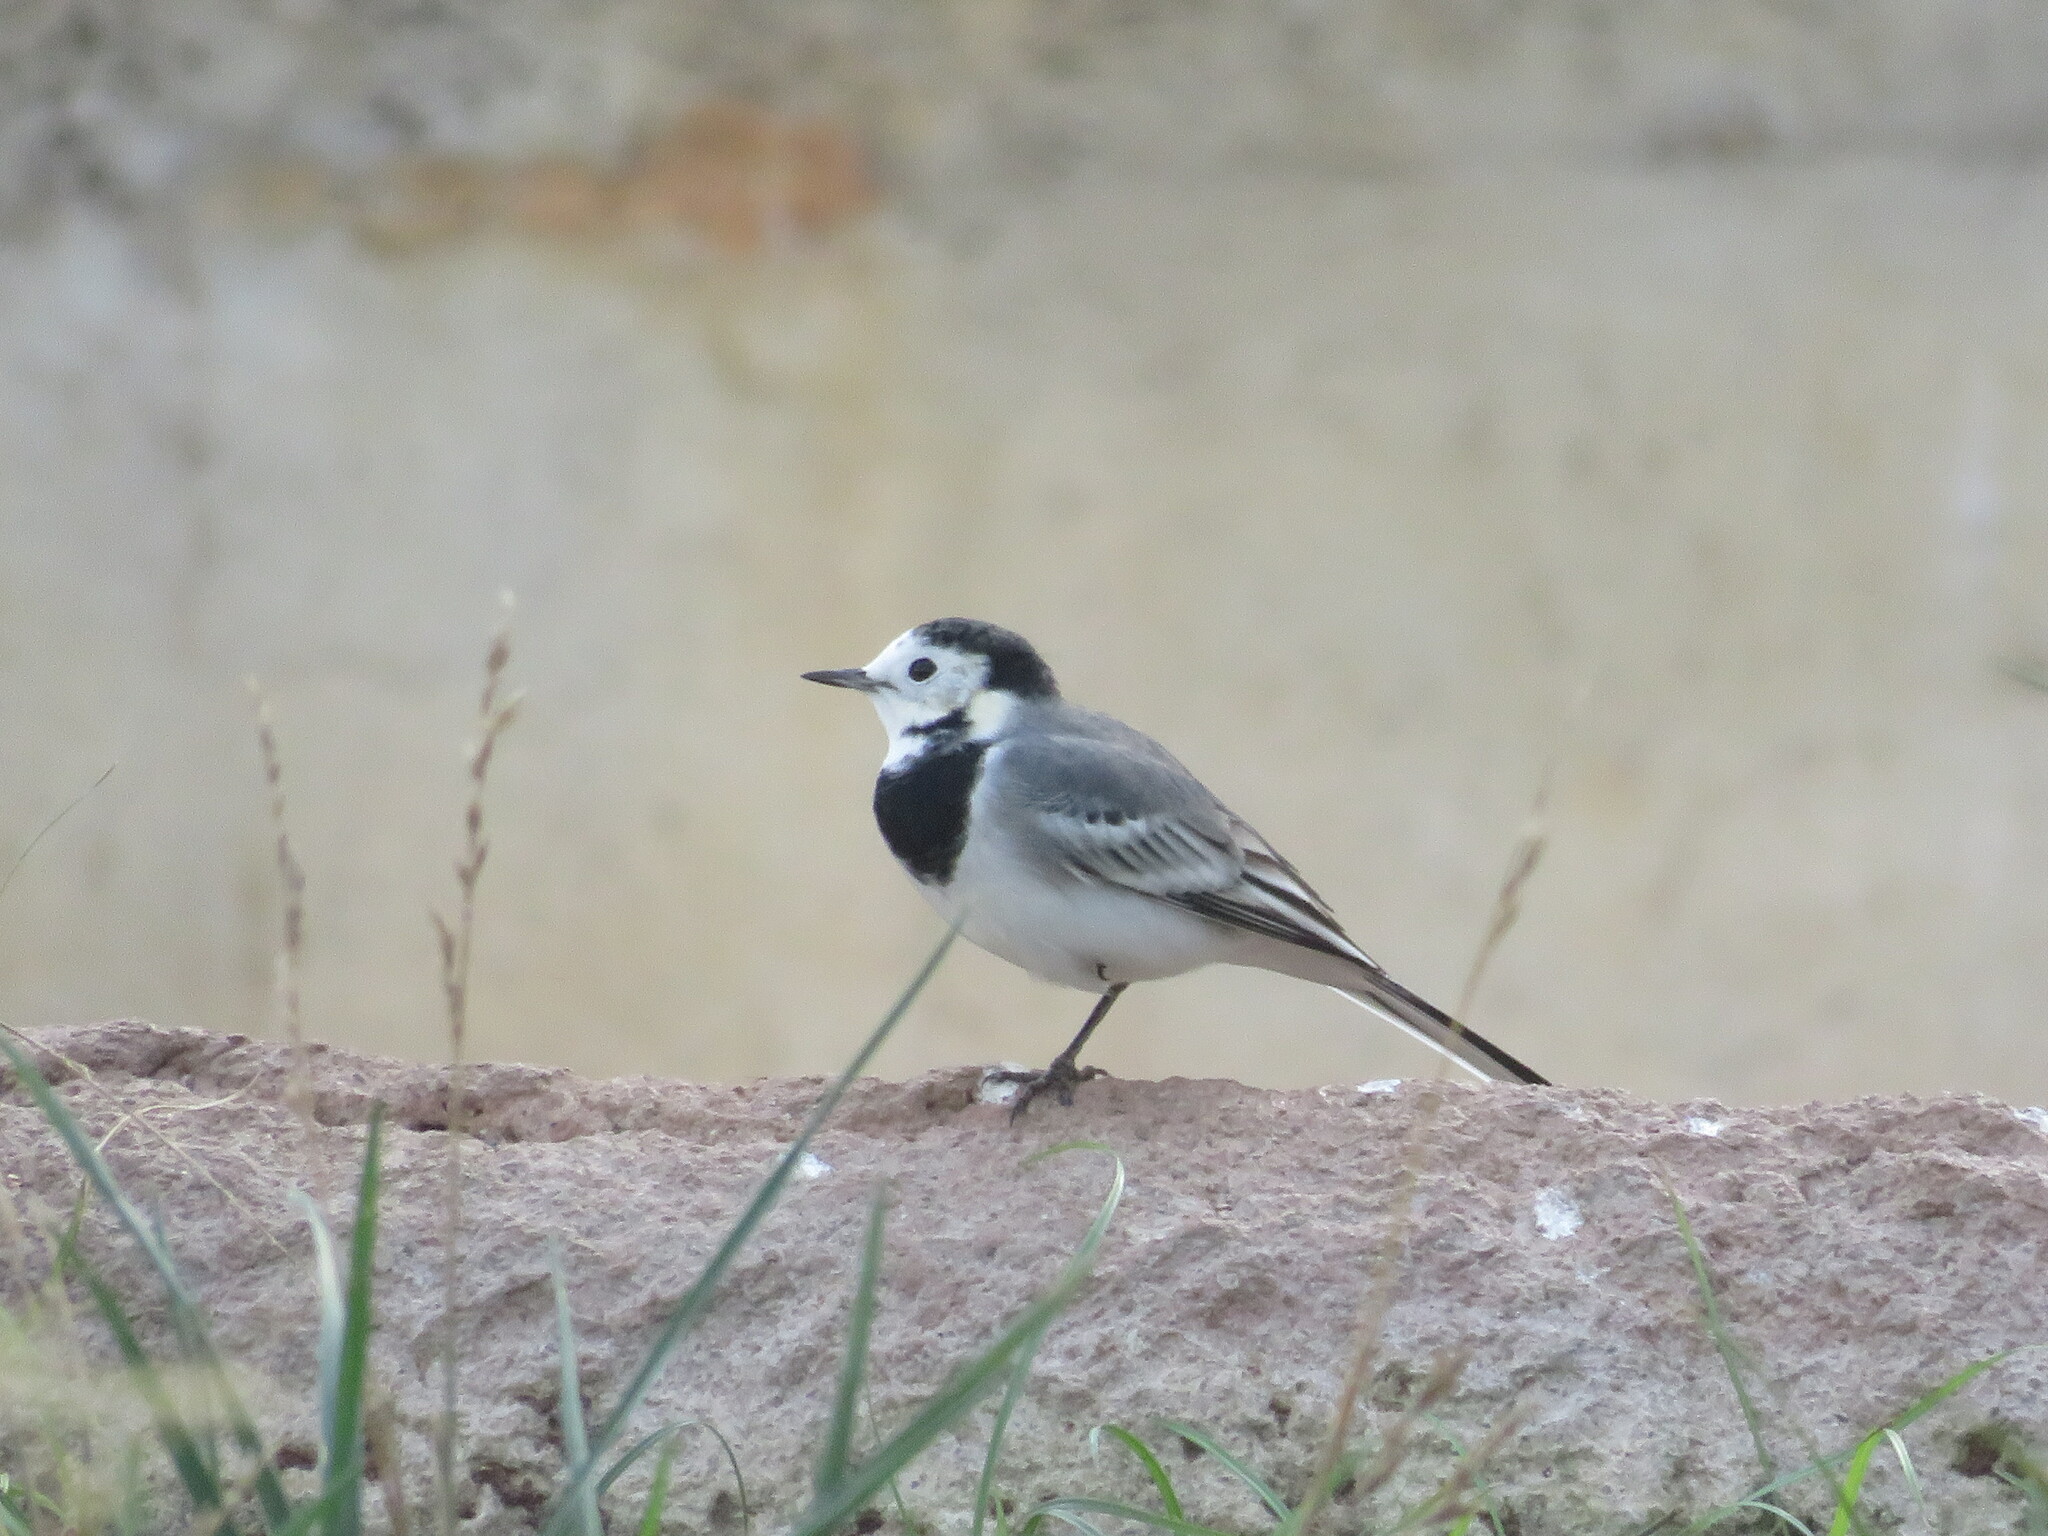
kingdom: Animalia
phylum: Chordata
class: Aves
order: Passeriformes
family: Motacillidae
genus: Motacilla
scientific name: Motacilla alba
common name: White wagtail
